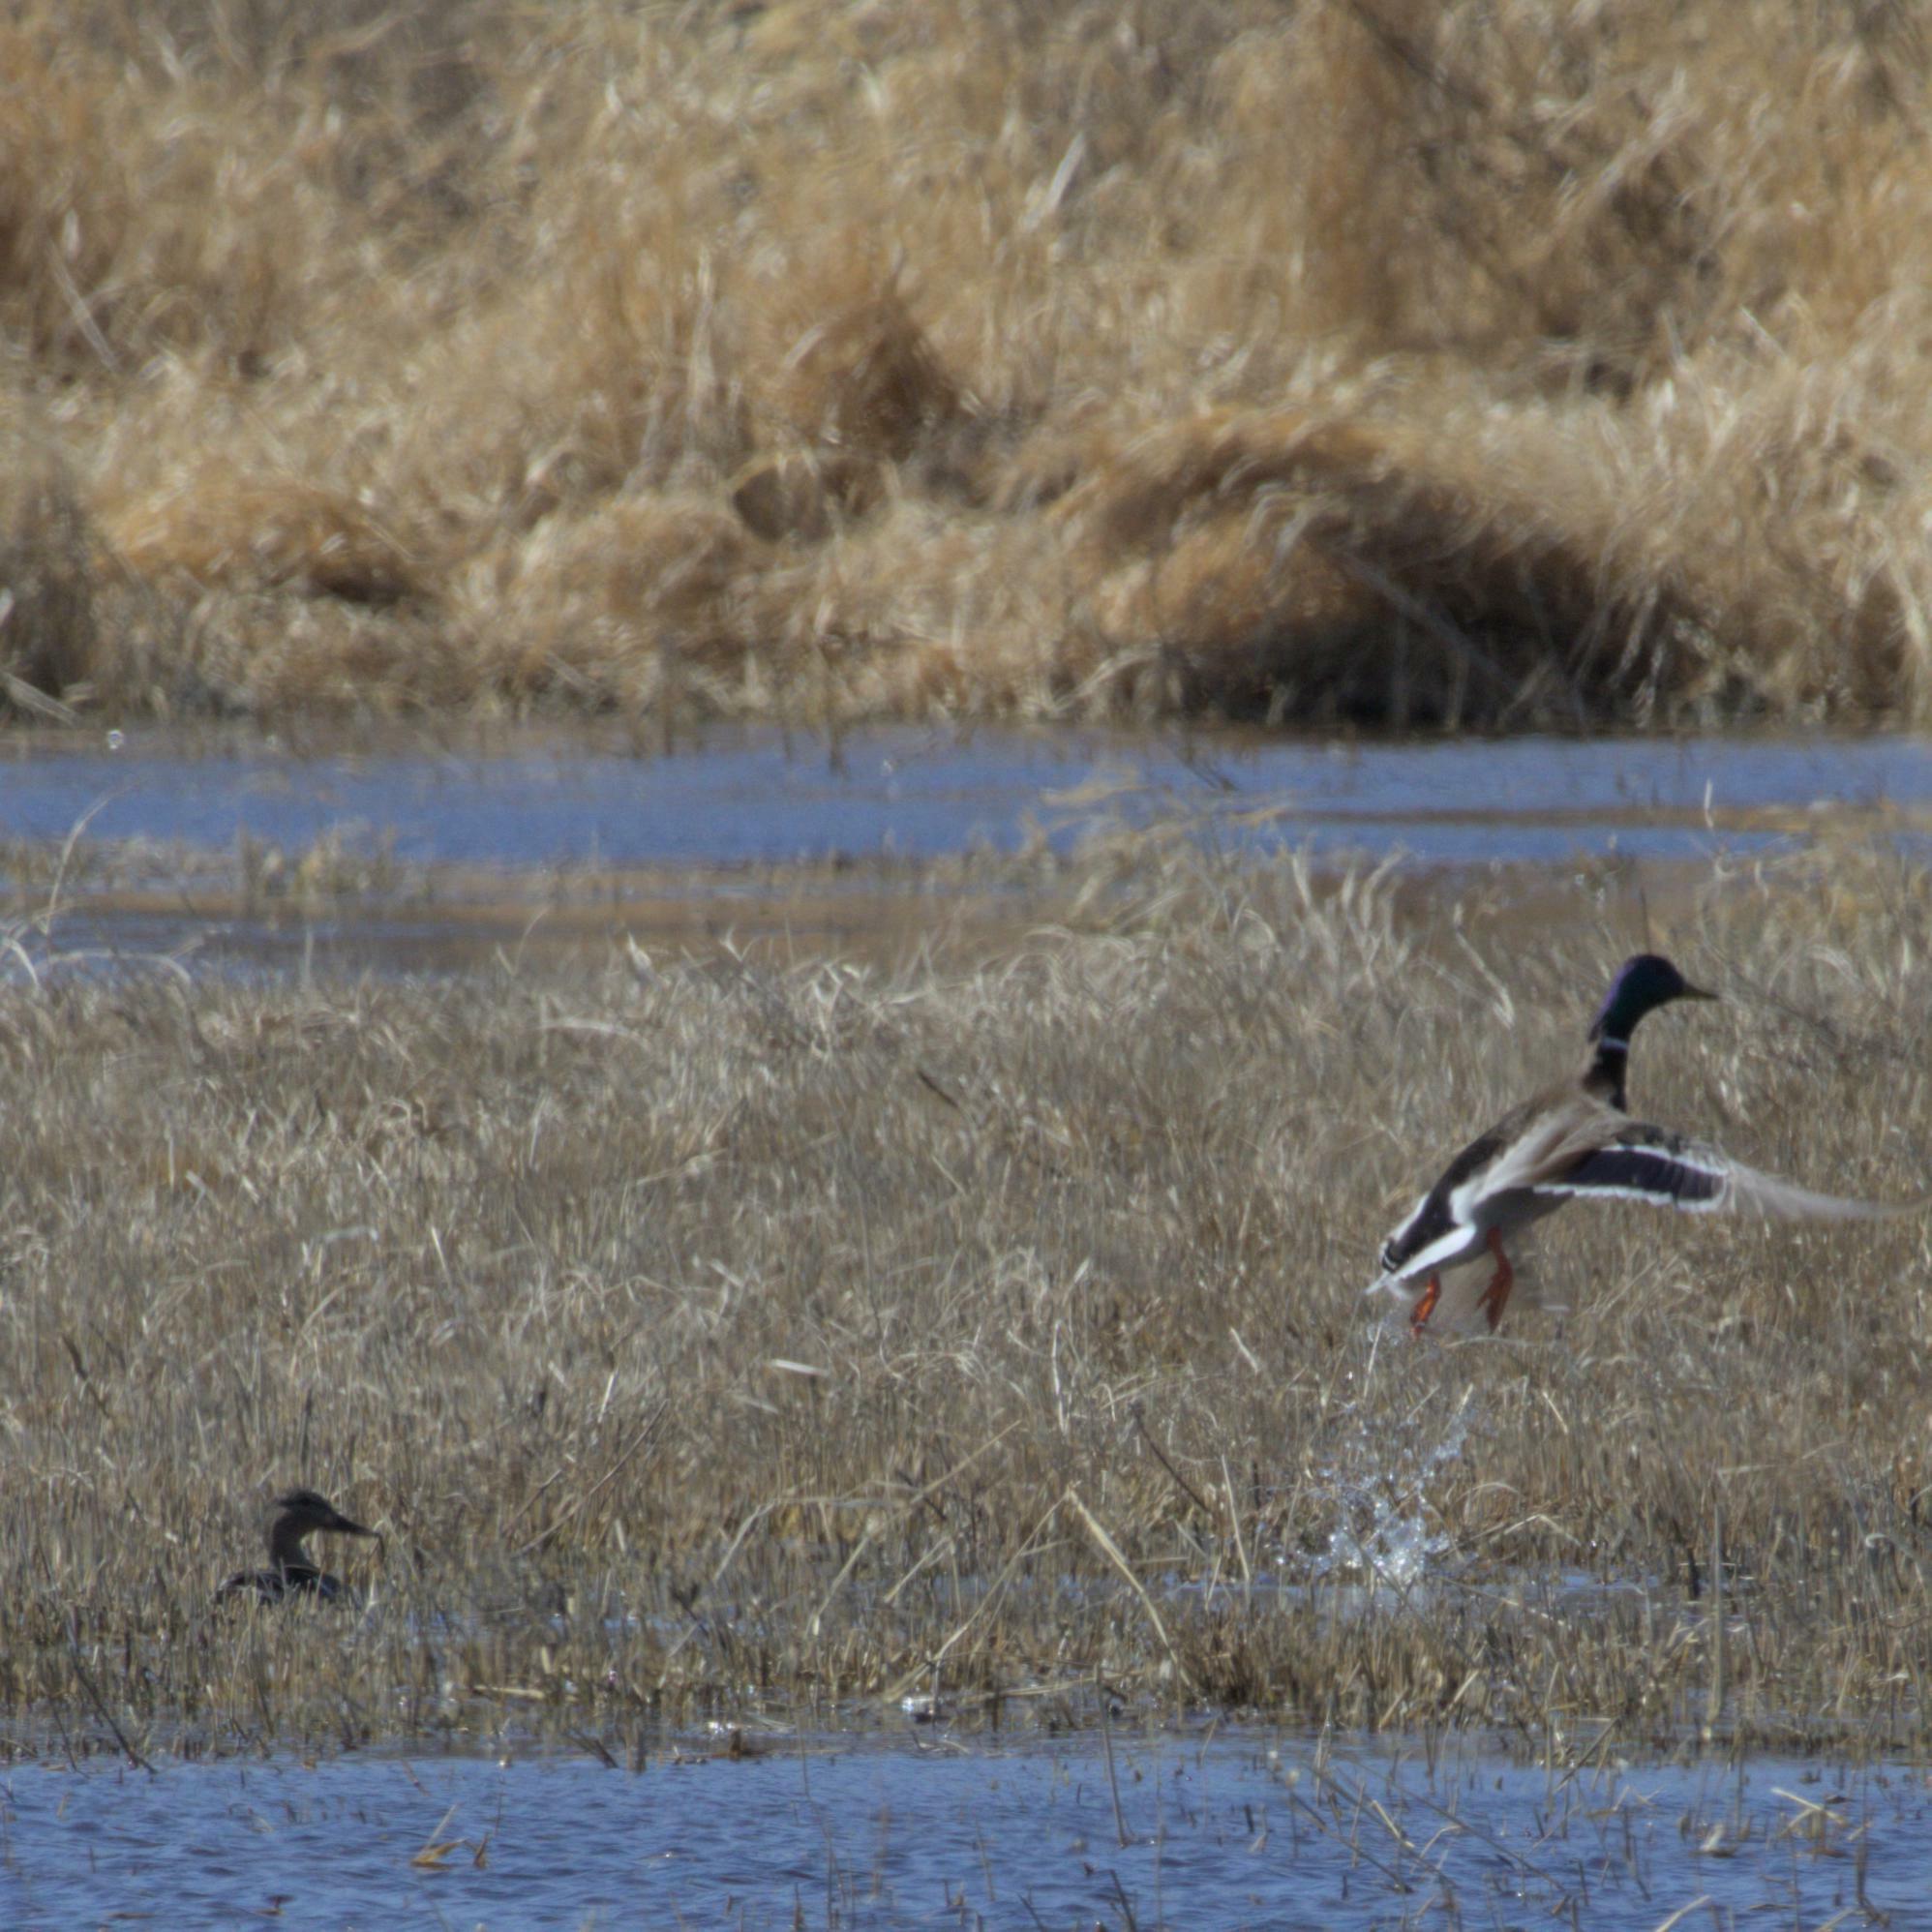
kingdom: Animalia
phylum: Chordata
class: Aves
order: Anseriformes
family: Anatidae
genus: Anas
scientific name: Anas platyrhynchos
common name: Mallard
